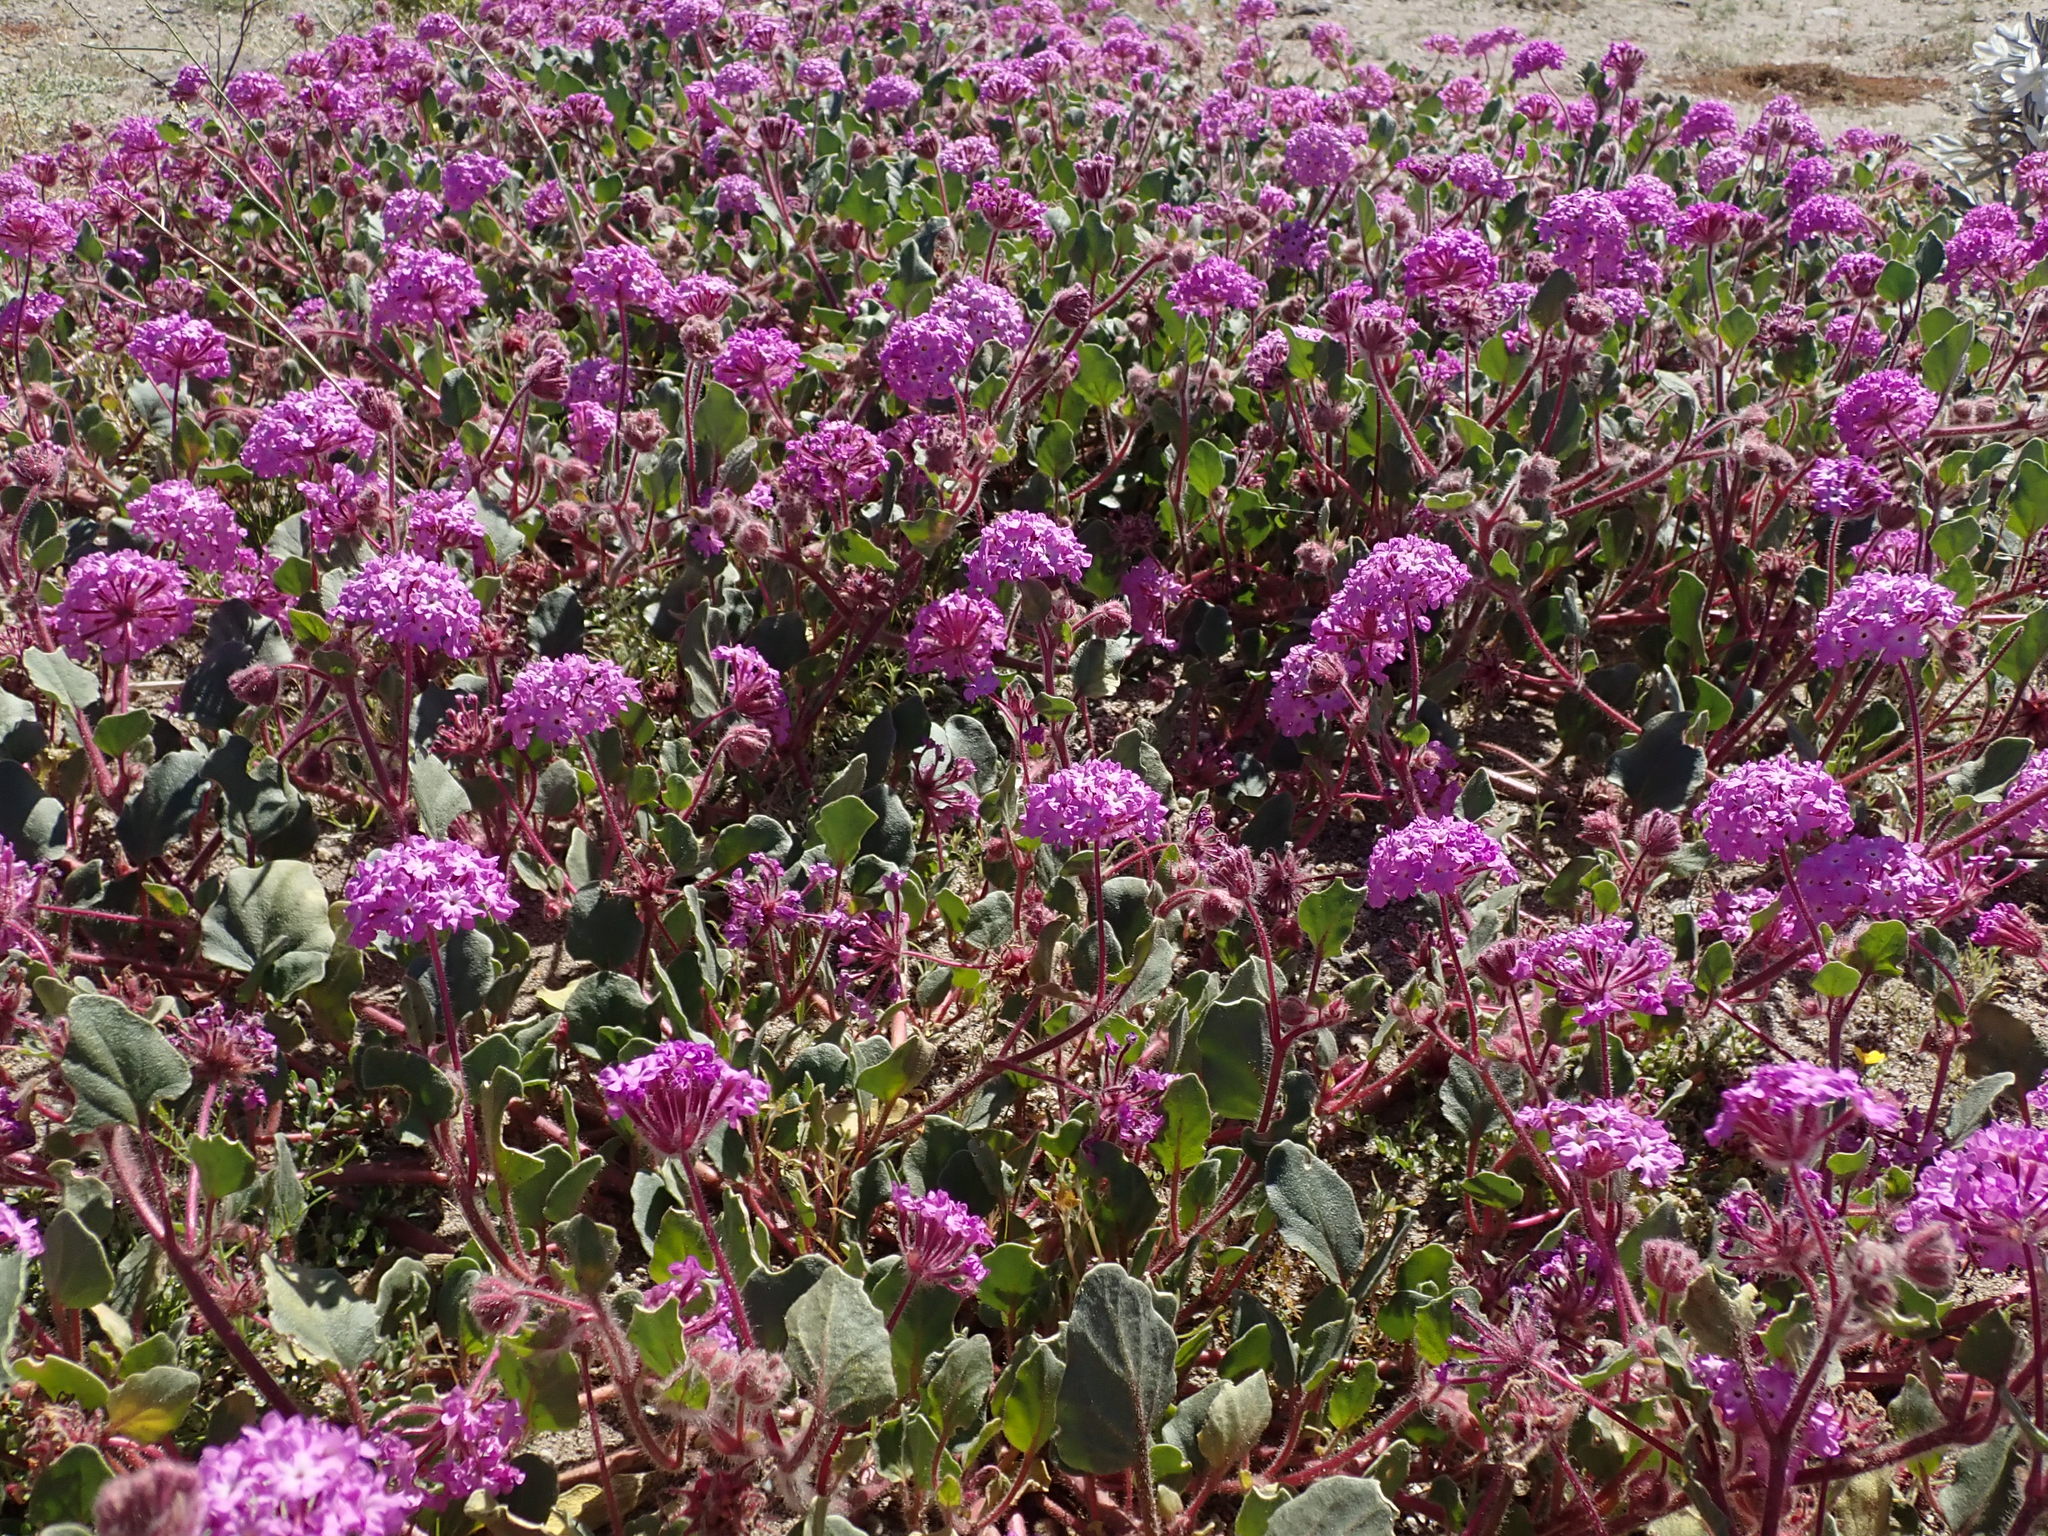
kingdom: Plantae
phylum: Tracheophyta
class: Magnoliopsida
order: Caryophyllales
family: Nyctaginaceae
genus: Abronia
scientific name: Abronia villosa
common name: Desert sand-verbena
